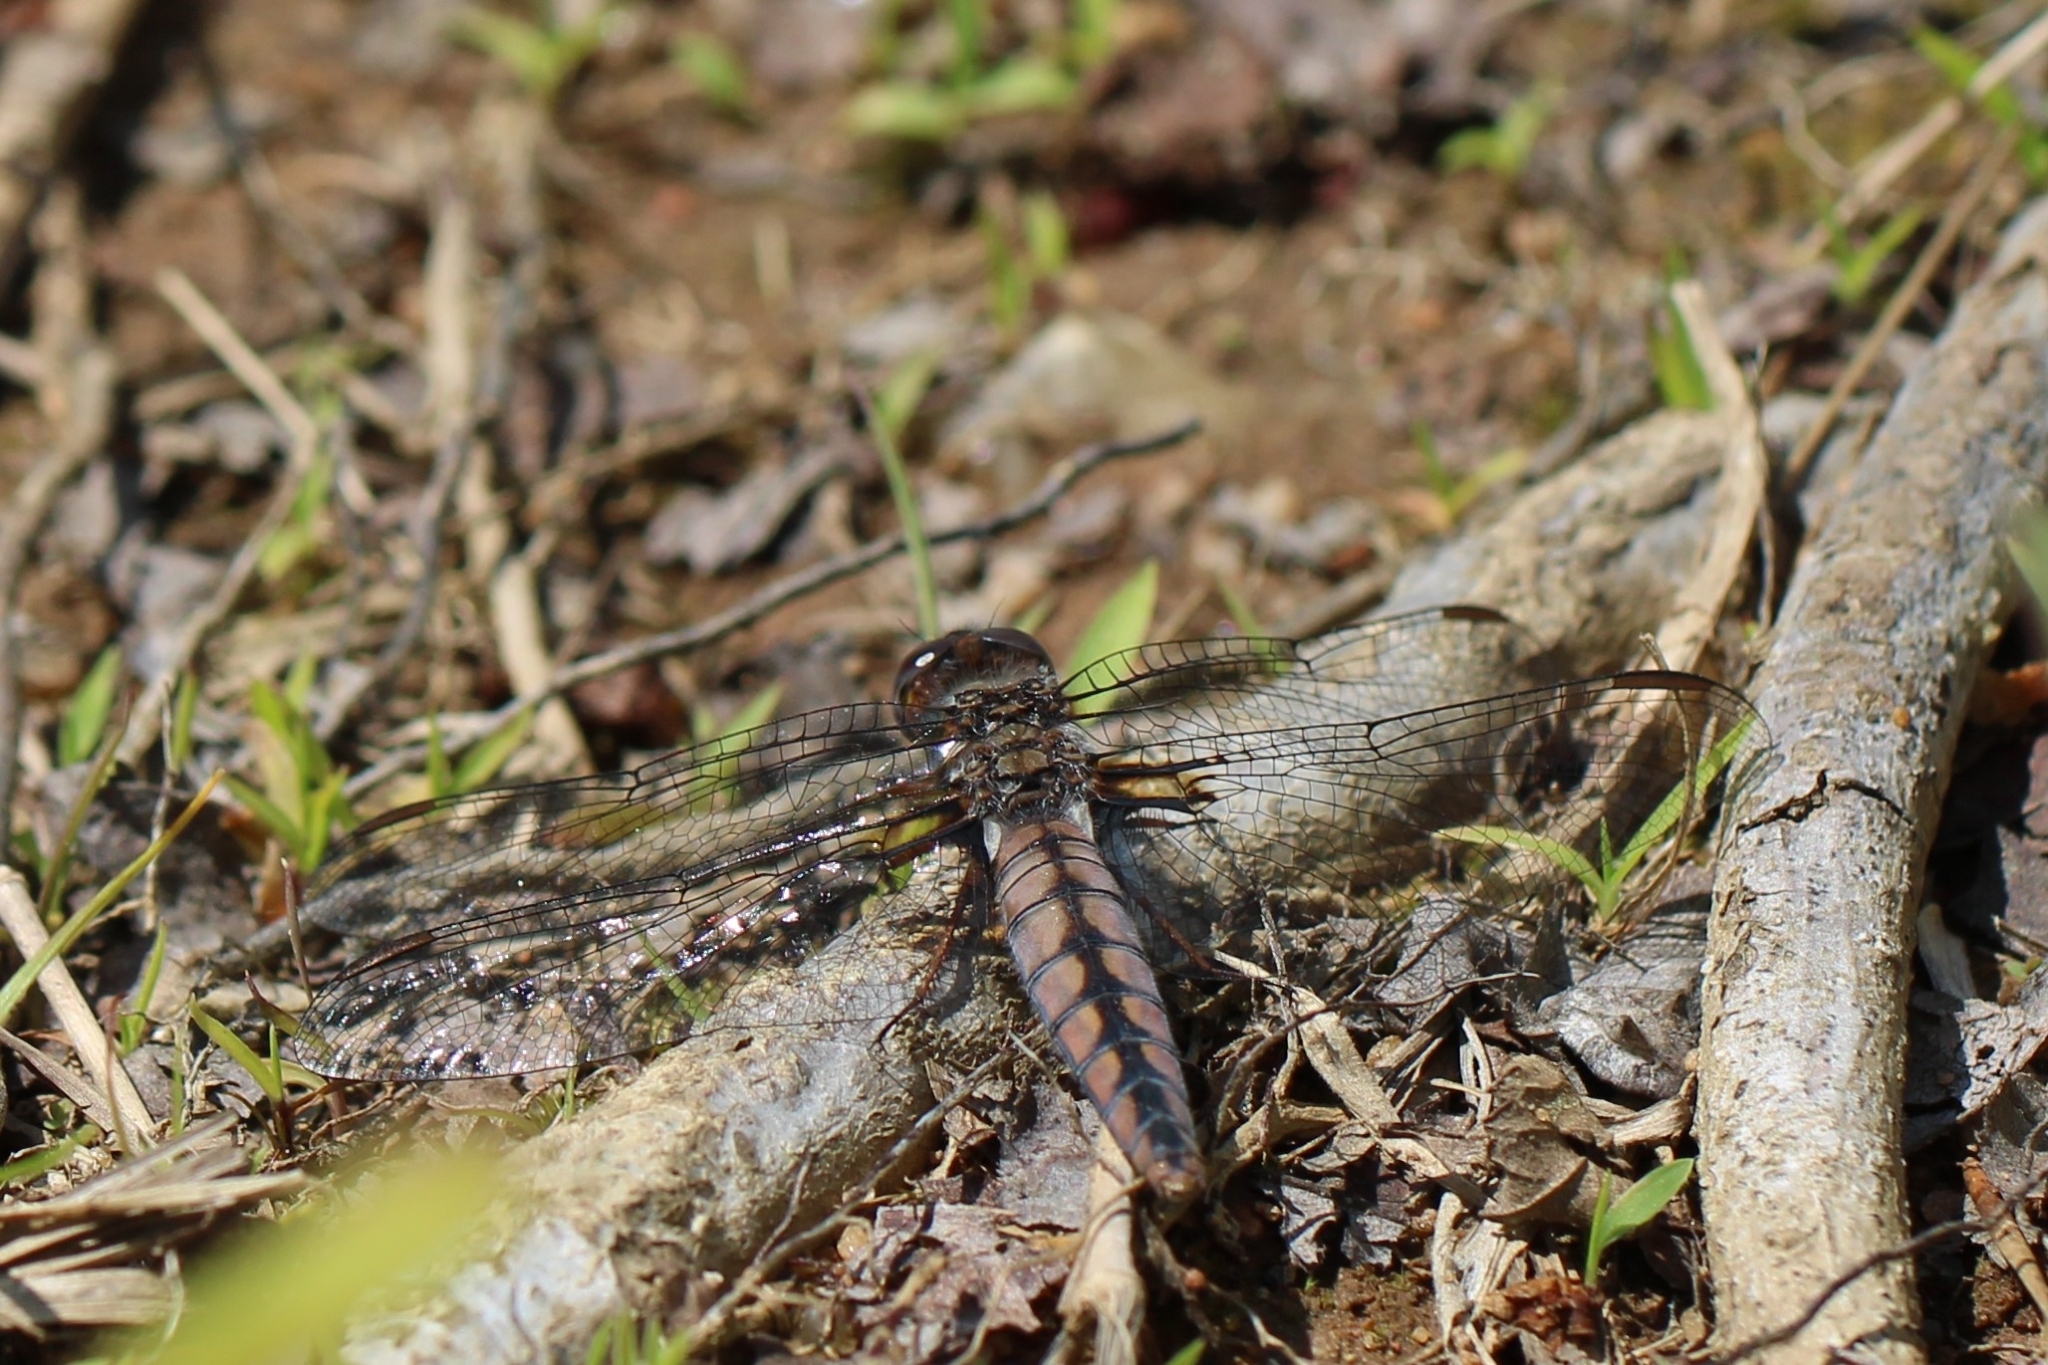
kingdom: Animalia
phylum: Arthropoda
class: Insecta
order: Odonata
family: Libellulidae
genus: Ladona
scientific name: Ladona deplanata
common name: Blue corporal
